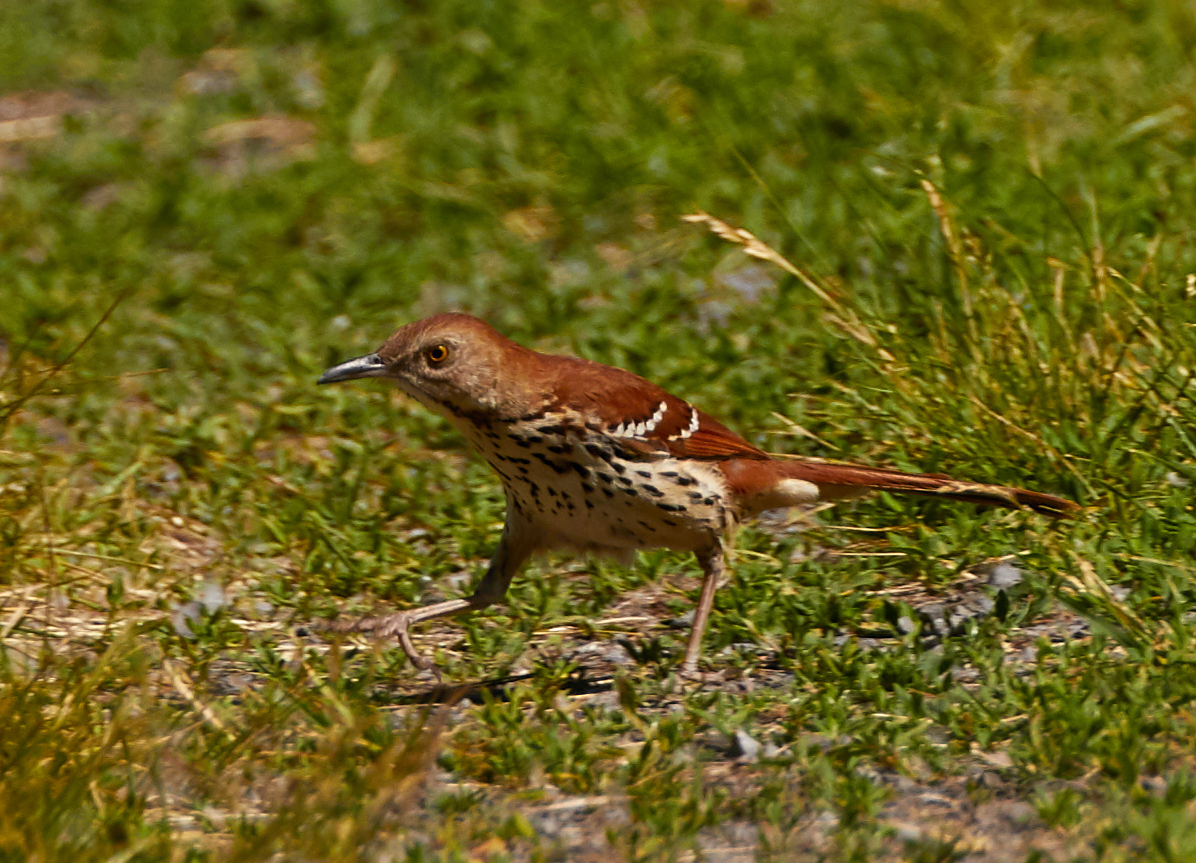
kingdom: Animalia
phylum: Chordata
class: Aves
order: Passeriformes
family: Mimidae
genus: Toxostoma
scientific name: Toxostoma rufum
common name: Brown thrasher
